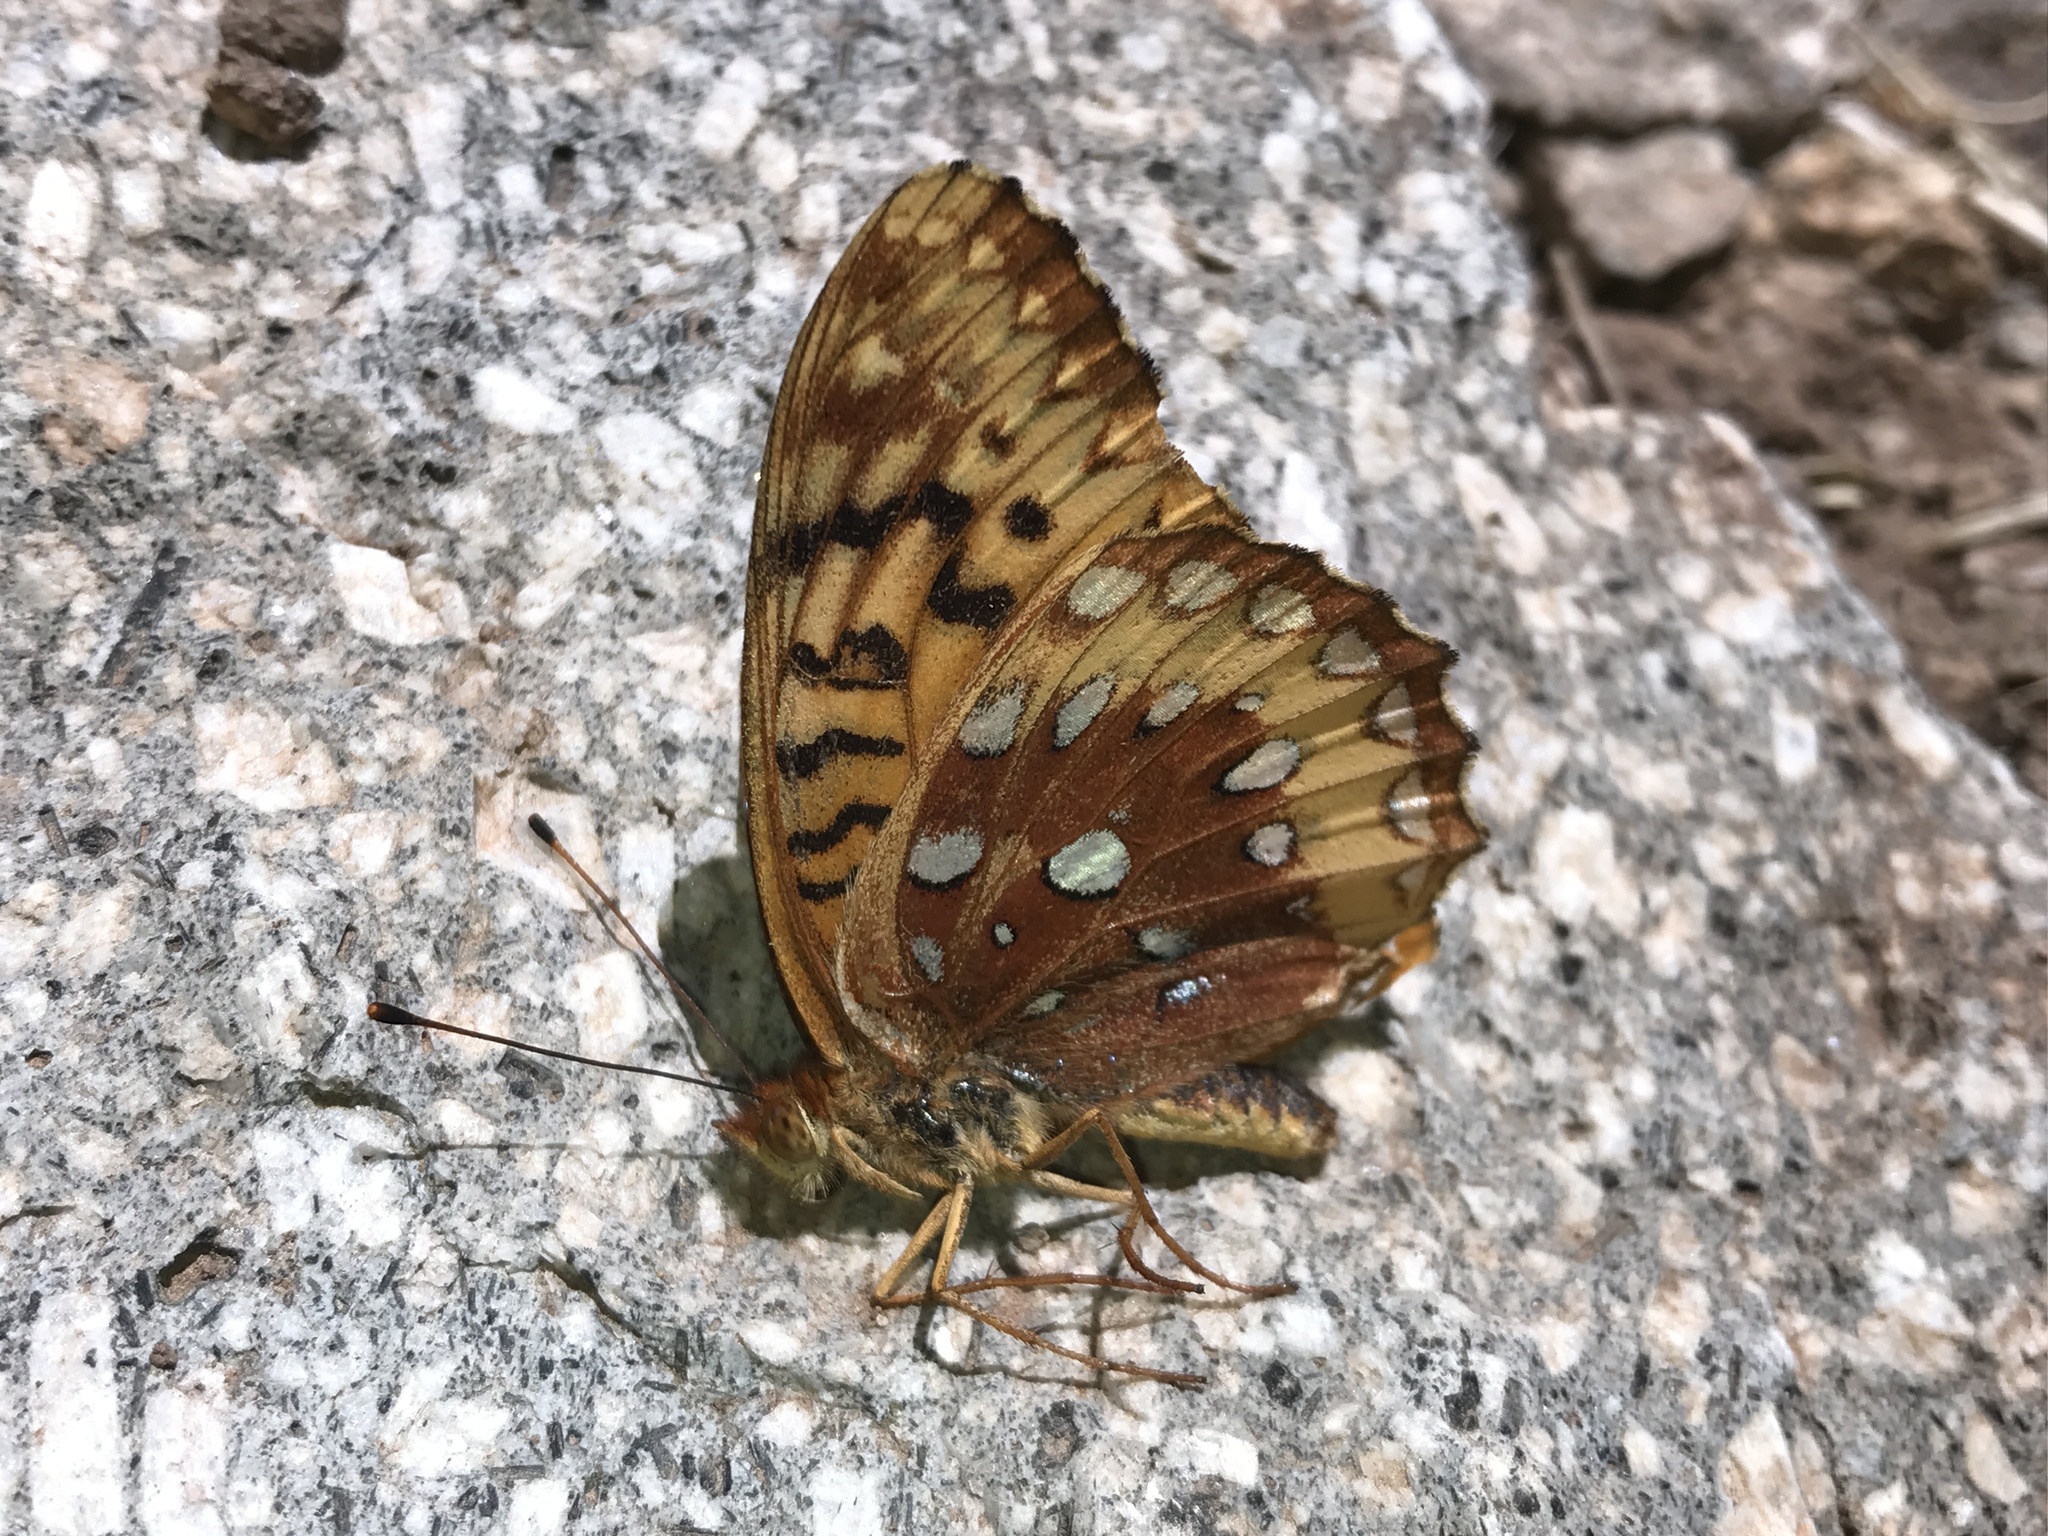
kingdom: Animalia
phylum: Arthropoda
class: Insecta
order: Lepidoptera
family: Nymphalidae
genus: Speyeria
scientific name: Speyeria cybele
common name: Great spangled fritillary
